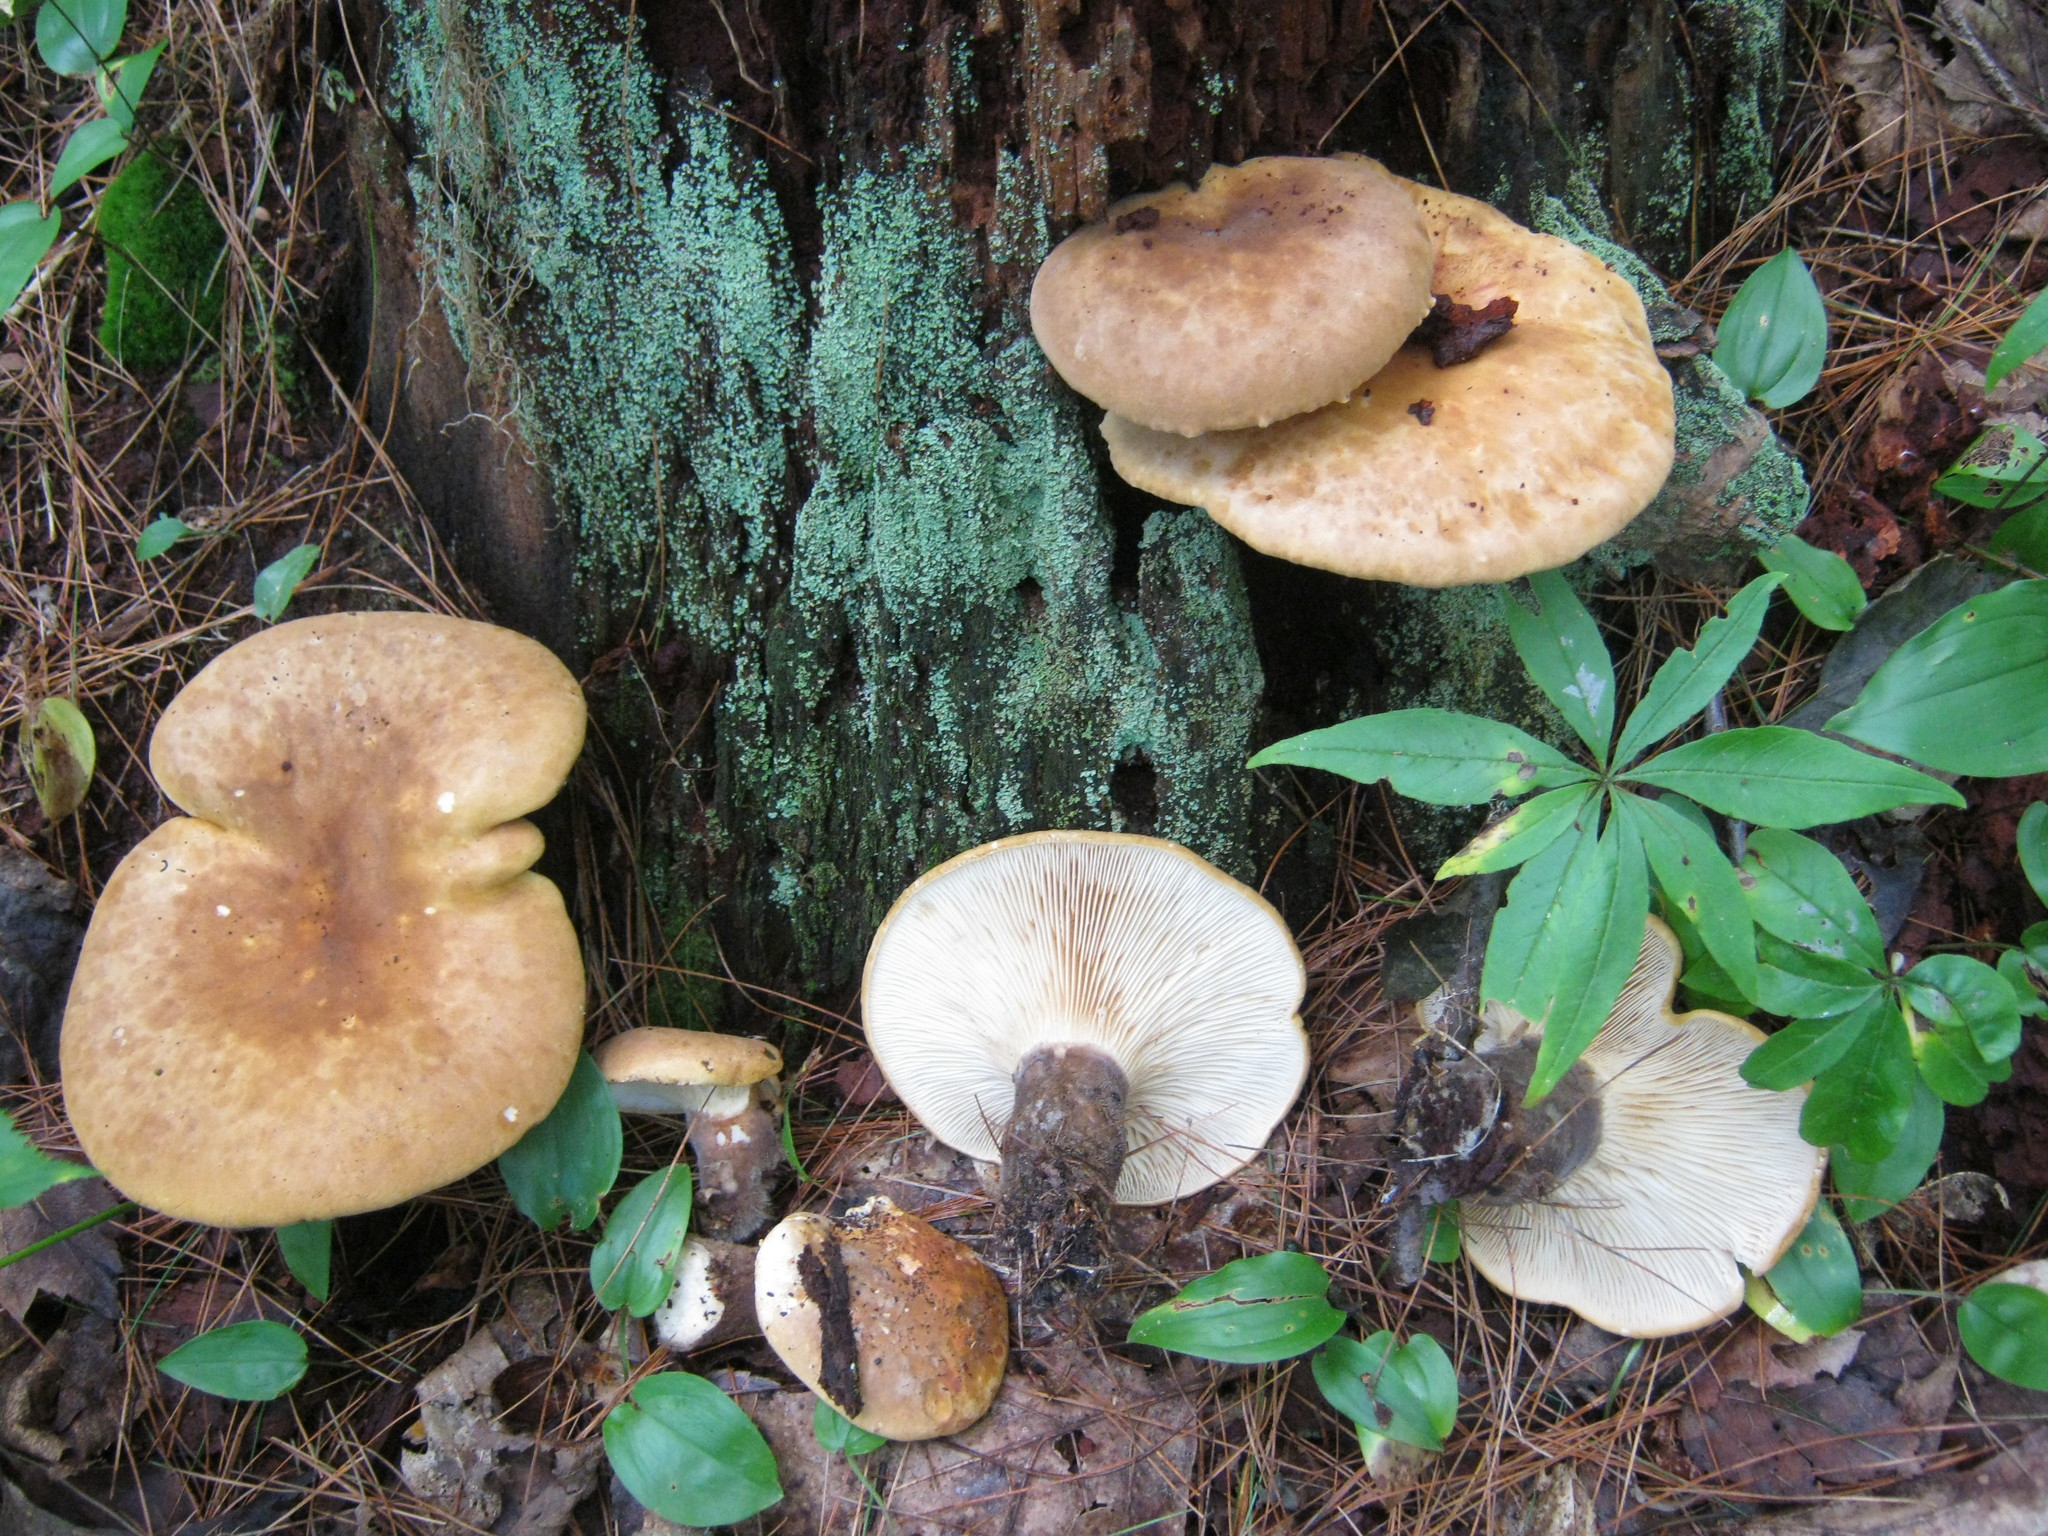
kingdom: Fungi
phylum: Basidiomycota
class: Agaricomycetes
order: Boletales
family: Tapinellaceae
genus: Tapinella
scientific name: Tapinella atrotomentosa
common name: Velvet rollrim
